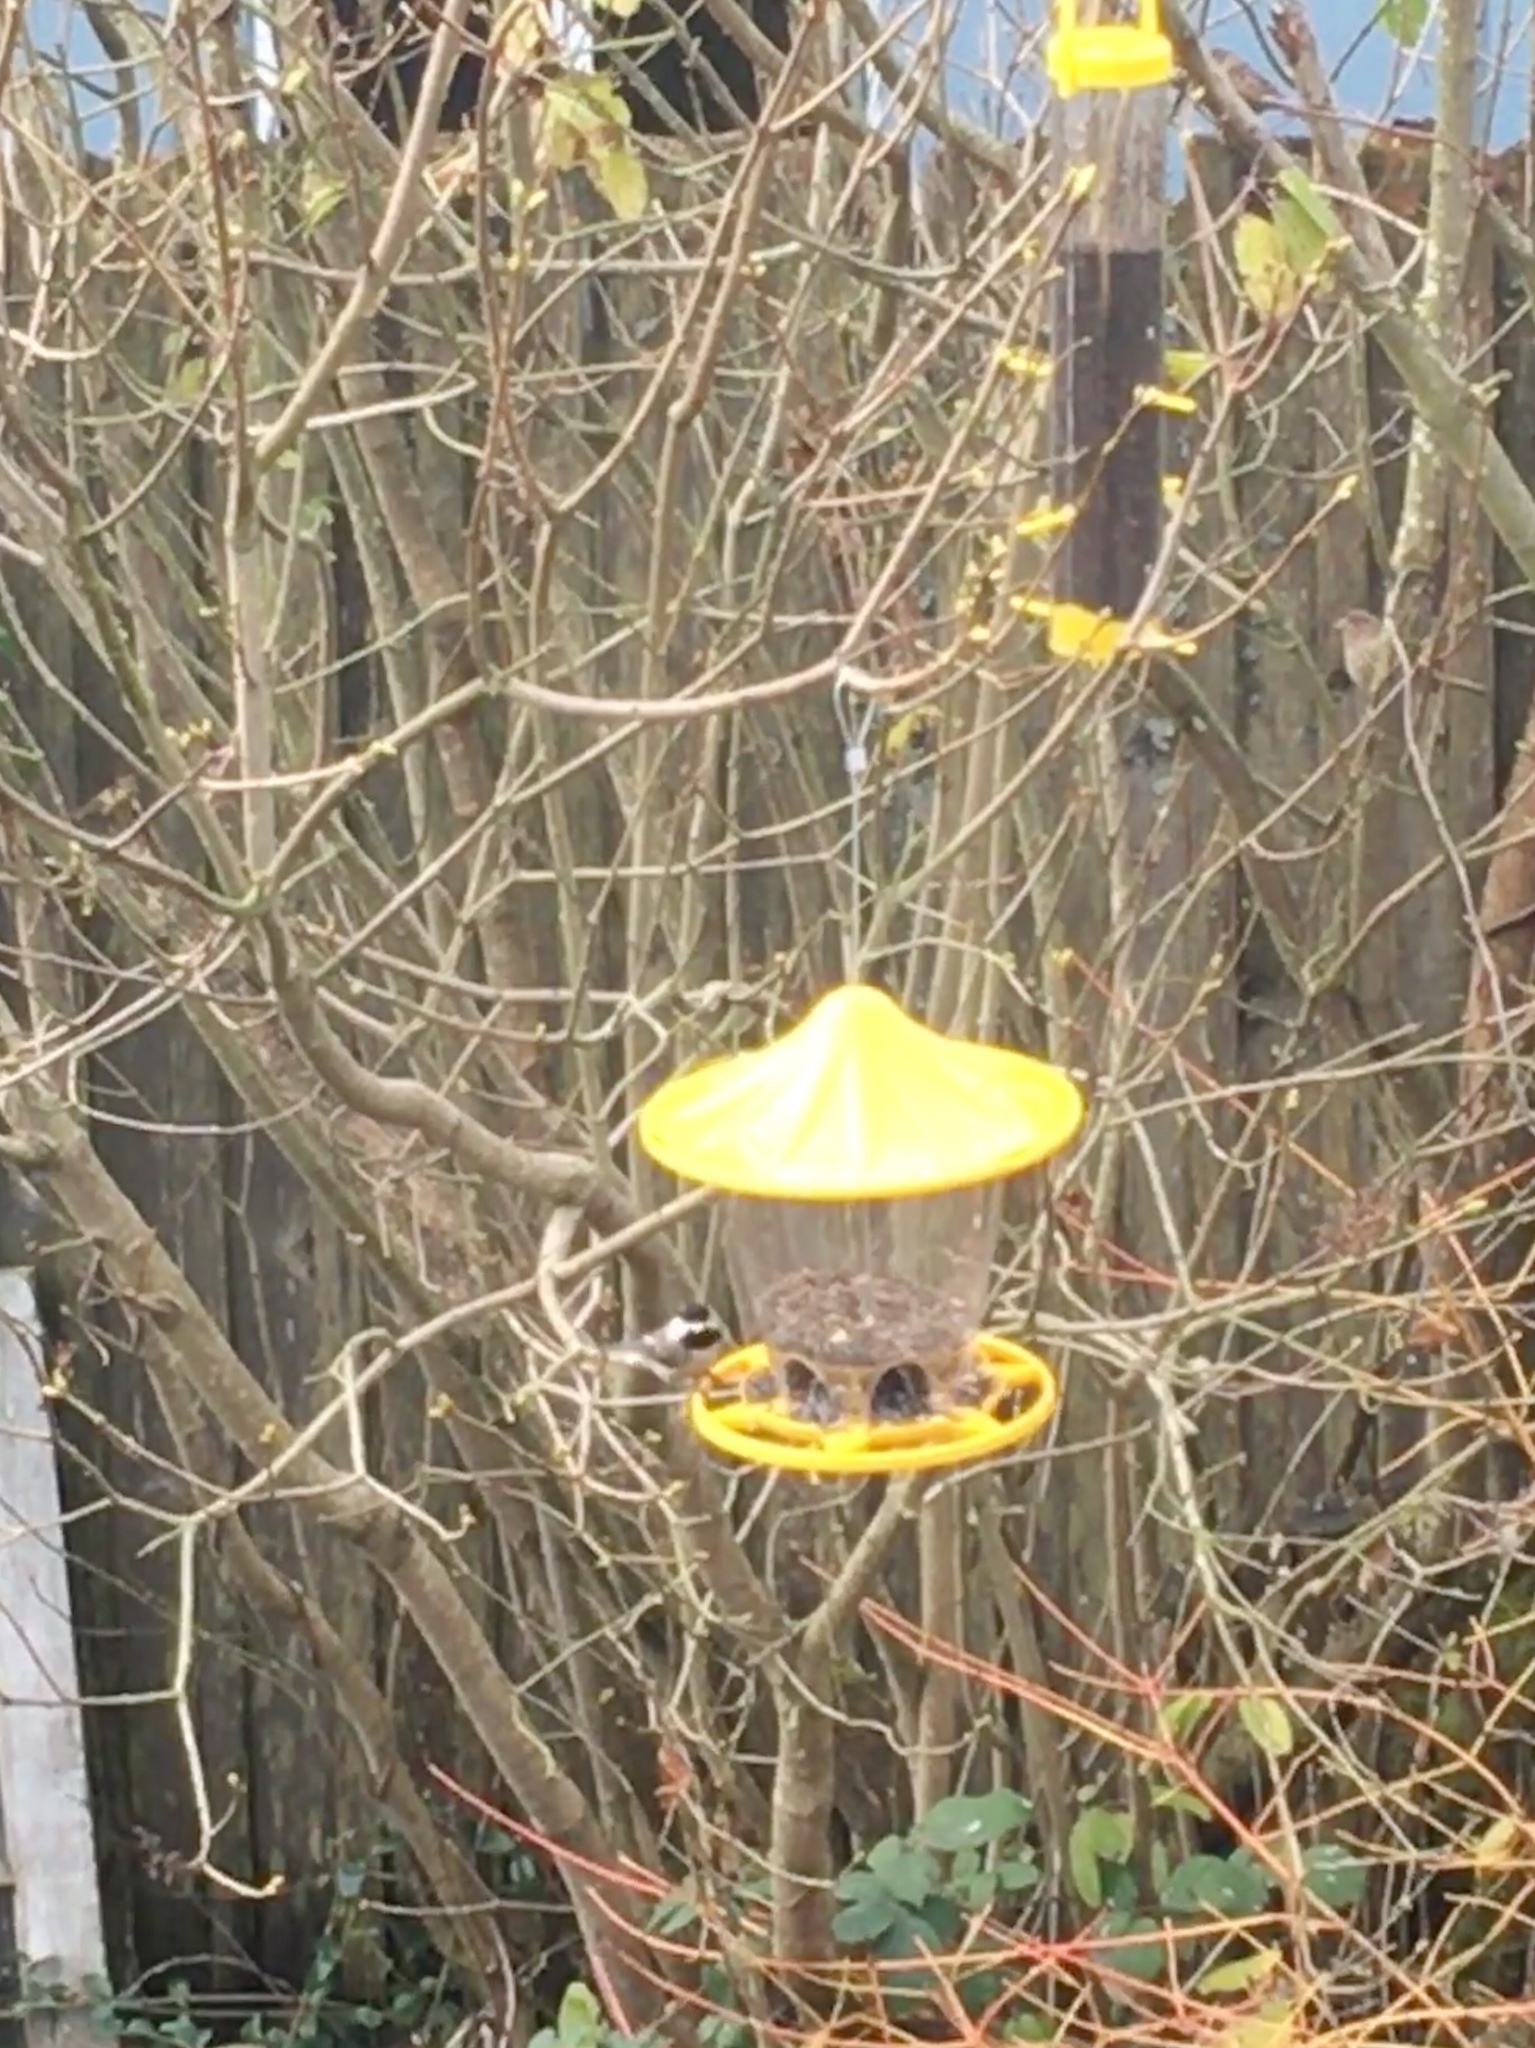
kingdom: Animalia
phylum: Chordata
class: Aves
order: Passeriformes
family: Paridae
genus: Poecile
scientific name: Poecile atricapillus
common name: Black-capped chickadee
